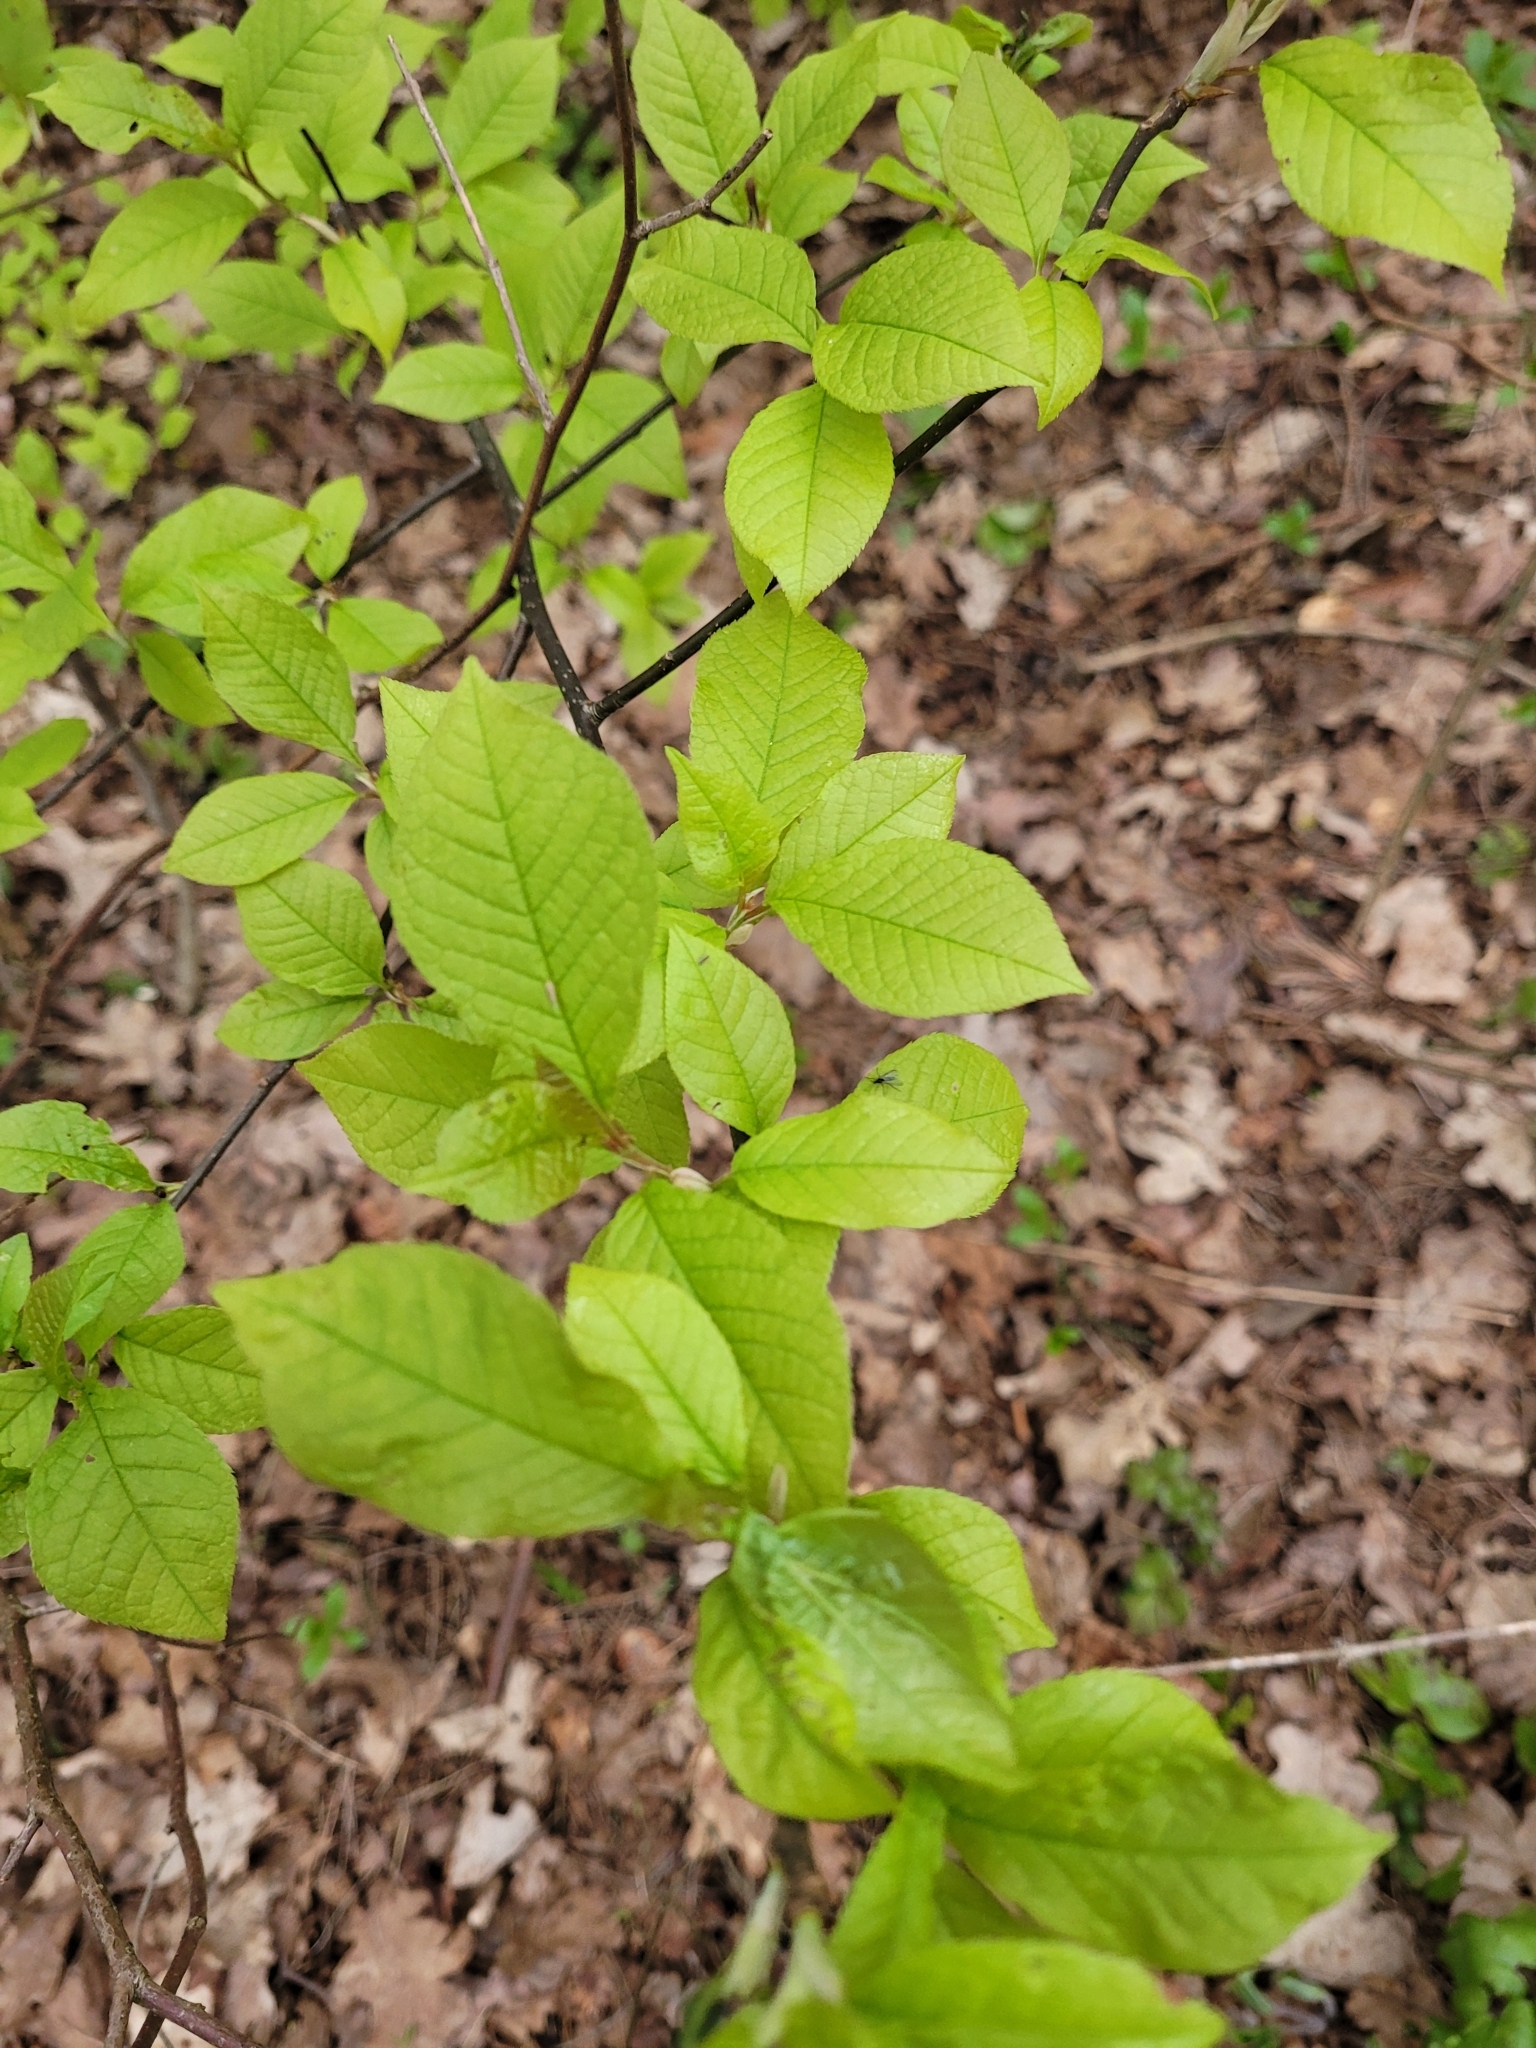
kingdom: Plantae
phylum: Tracheophyta
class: Magnoliopsida
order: Rosales
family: Rosaceae
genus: Prunus
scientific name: Prunus padus
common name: Bird cherry
